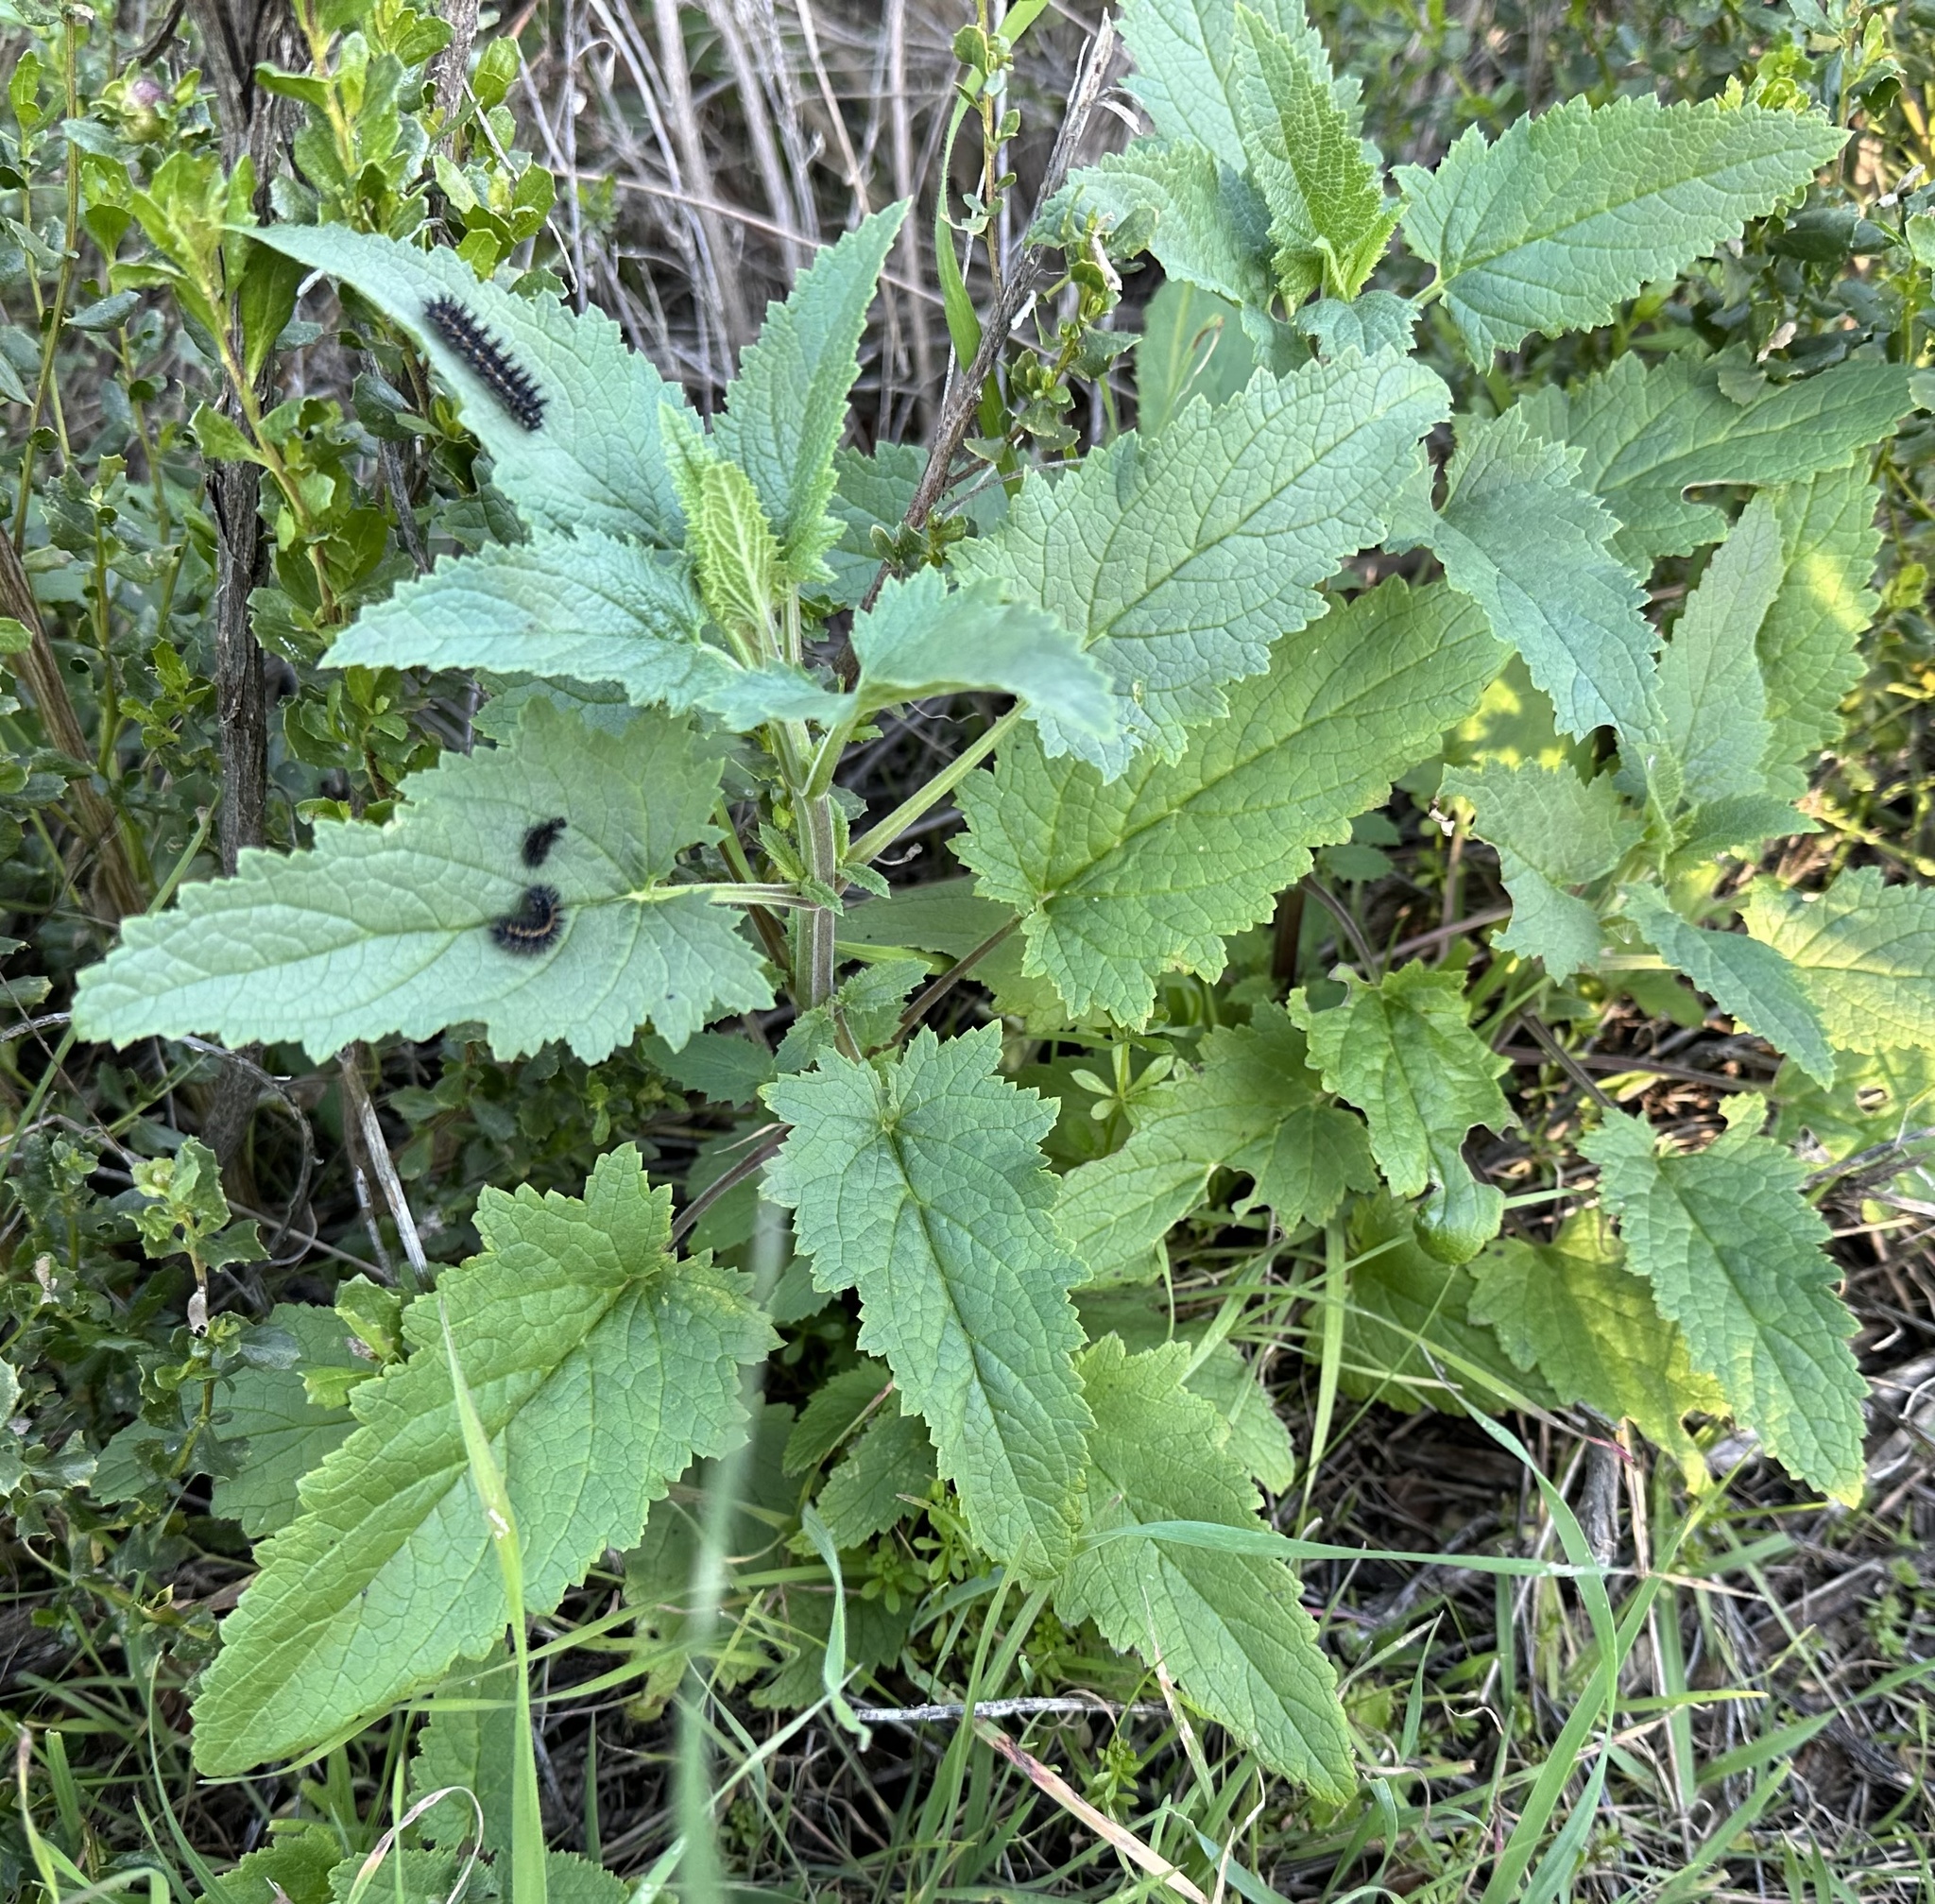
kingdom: Animalia
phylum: Arthropoda
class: Insecta
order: Lepidoptera
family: Nymphalidae
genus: Occidryas
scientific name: Occidryas chalcedona
